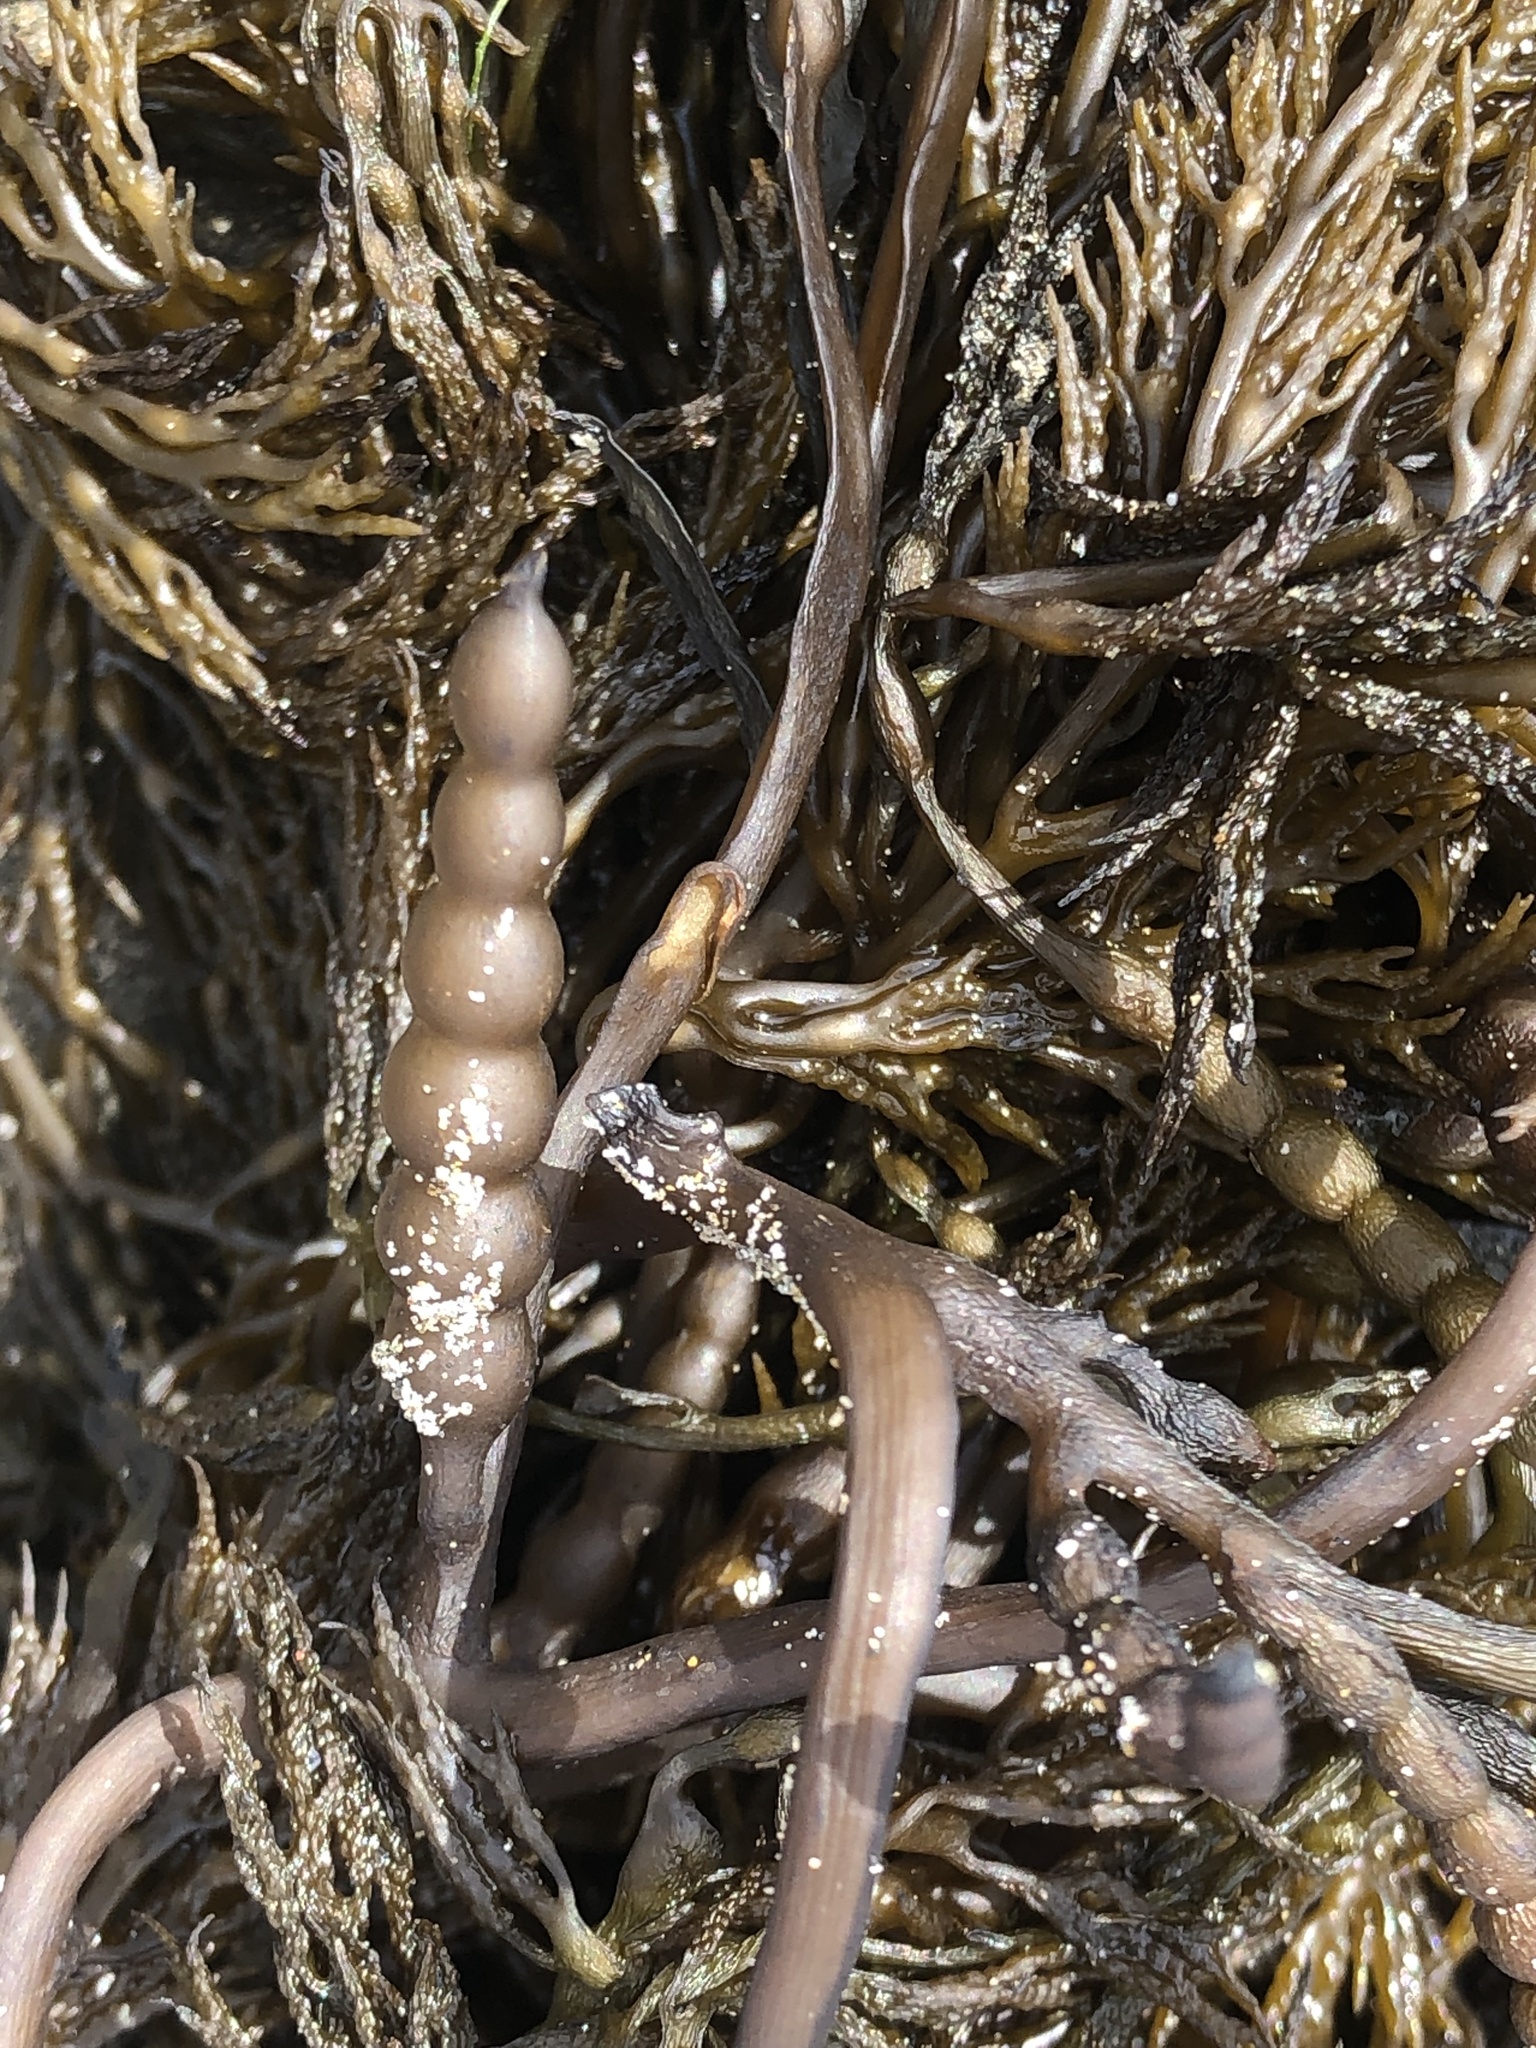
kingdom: Chromista
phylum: Ochrophyta
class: Phaeophyceae
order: Fucales
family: Sargassaceae
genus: Stephanocystis
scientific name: Stephanocystis
